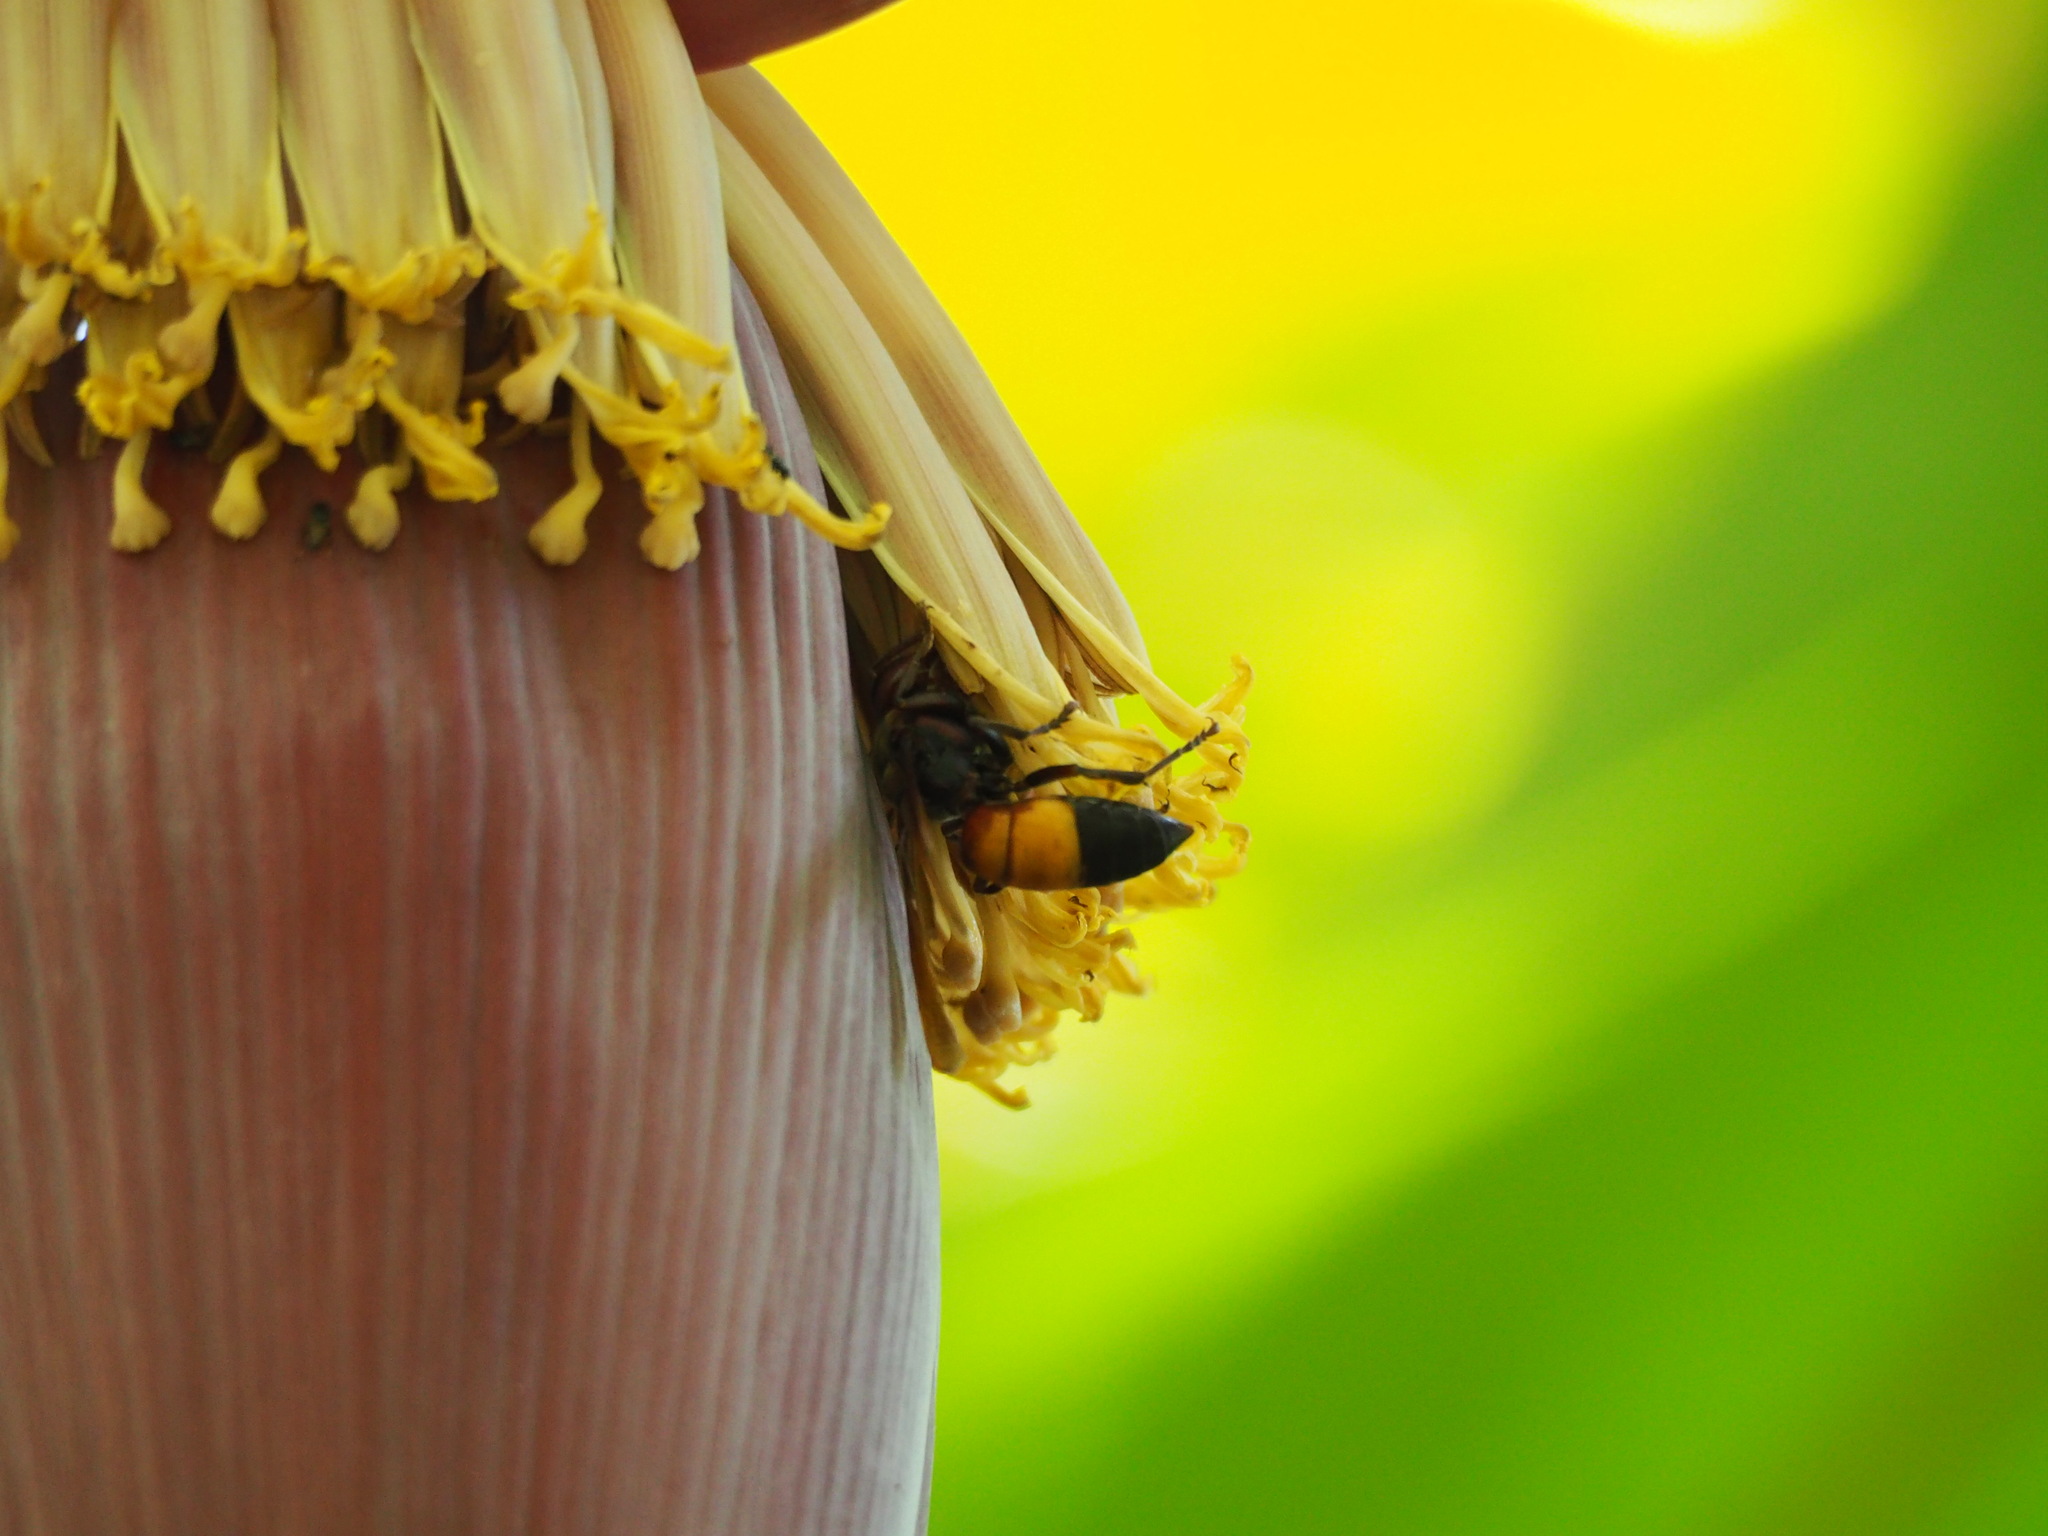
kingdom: Animalia
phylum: Arthropoda
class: Insecta
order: Hymenoptera
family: Vespidae
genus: Vespa
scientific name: Vespa affinis
